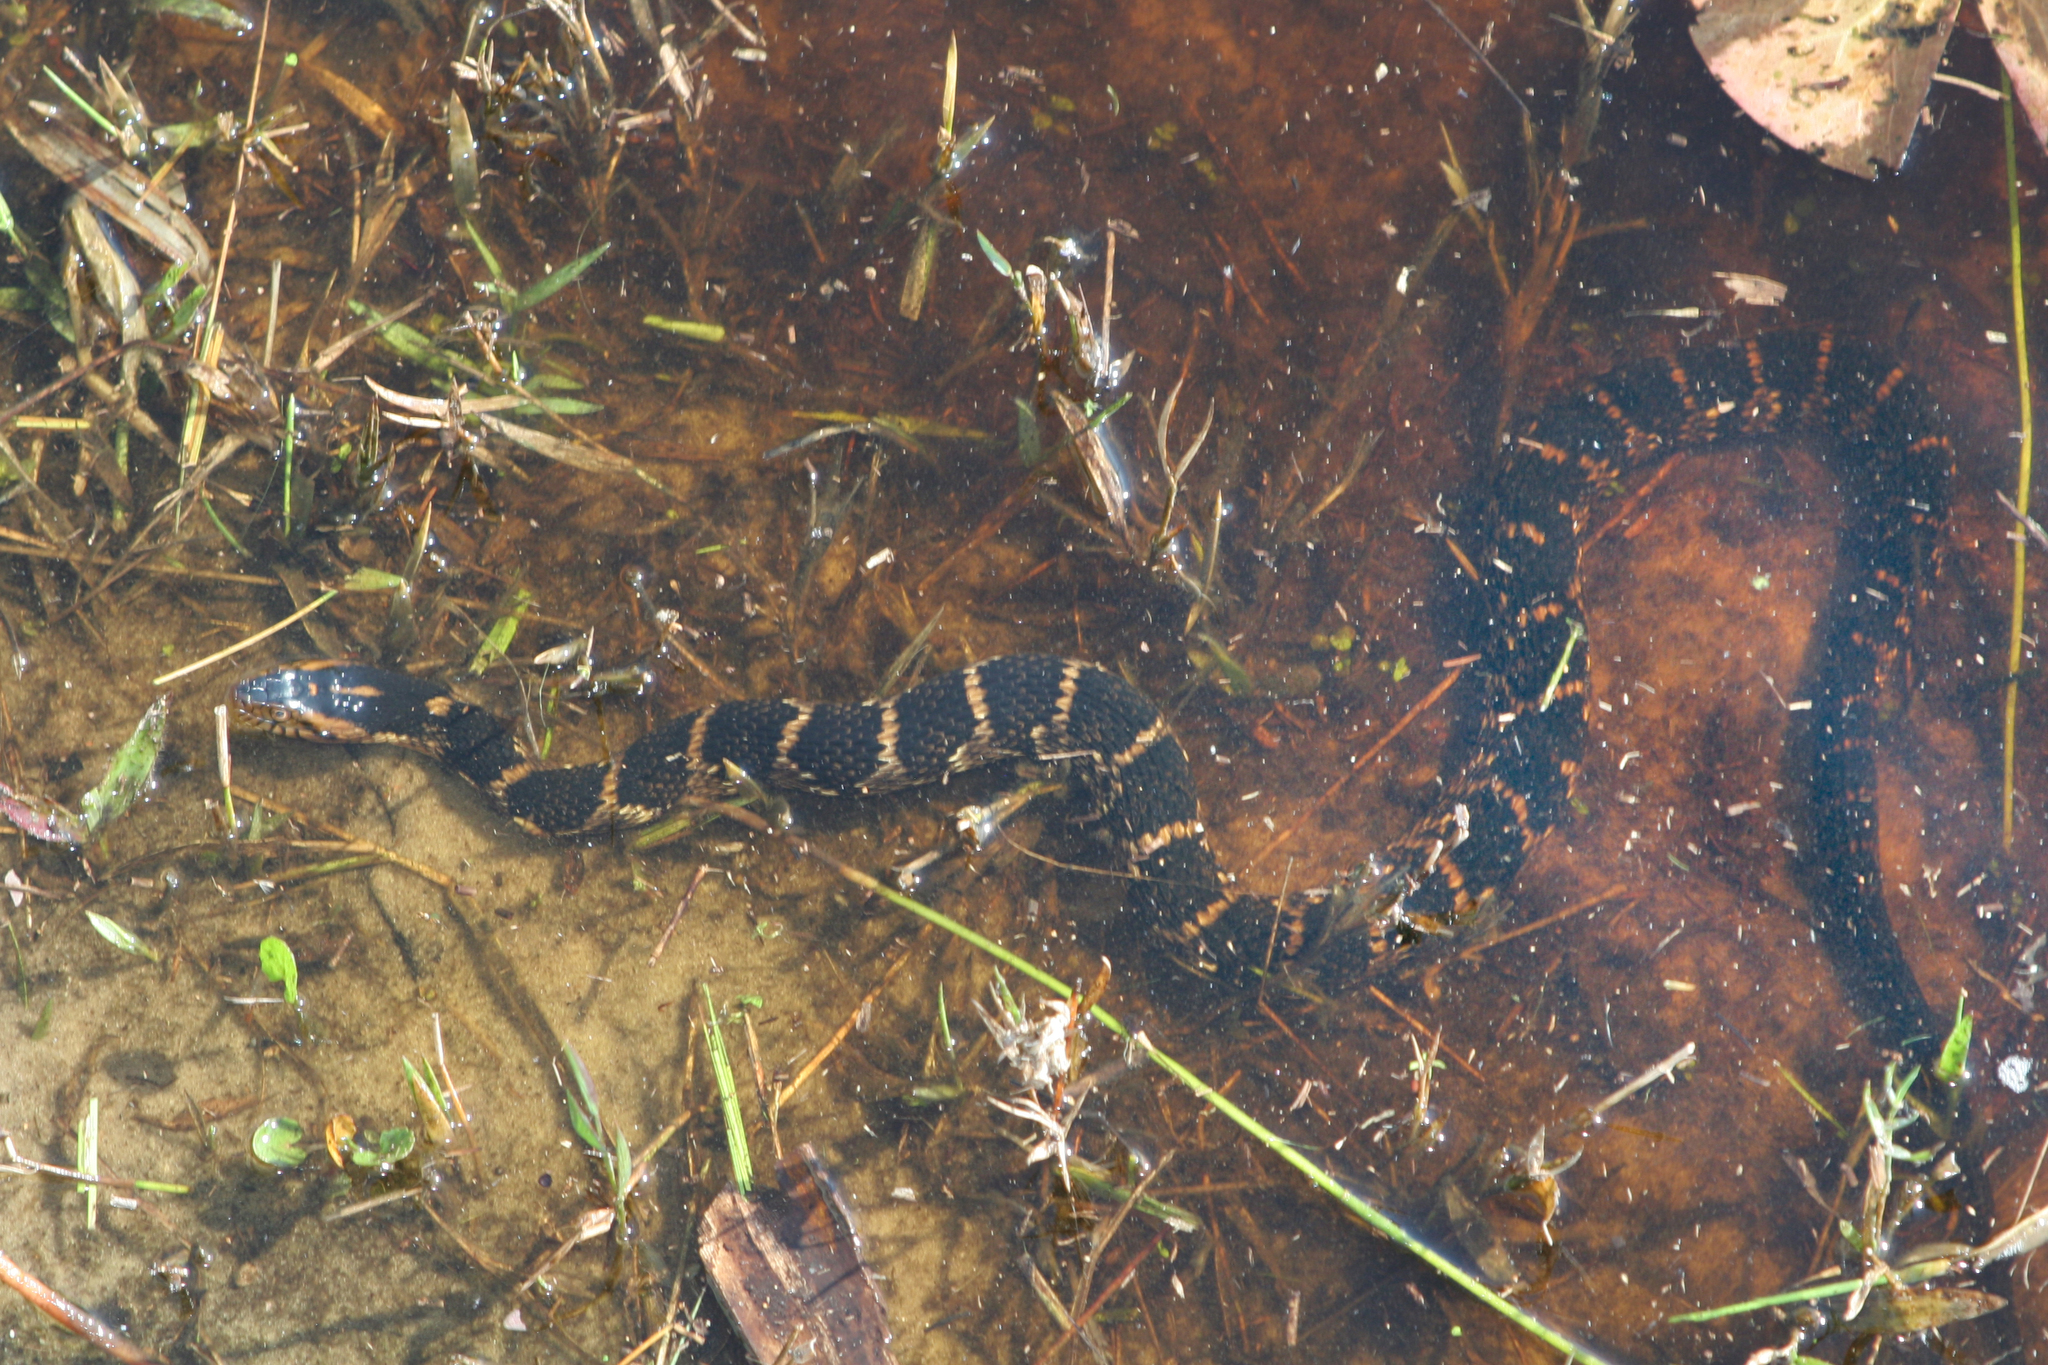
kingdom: Animalia
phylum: Chordata
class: Squamata
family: Colubridae
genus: Nerodia
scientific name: Nerodia fasciata
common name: Southern water snake
